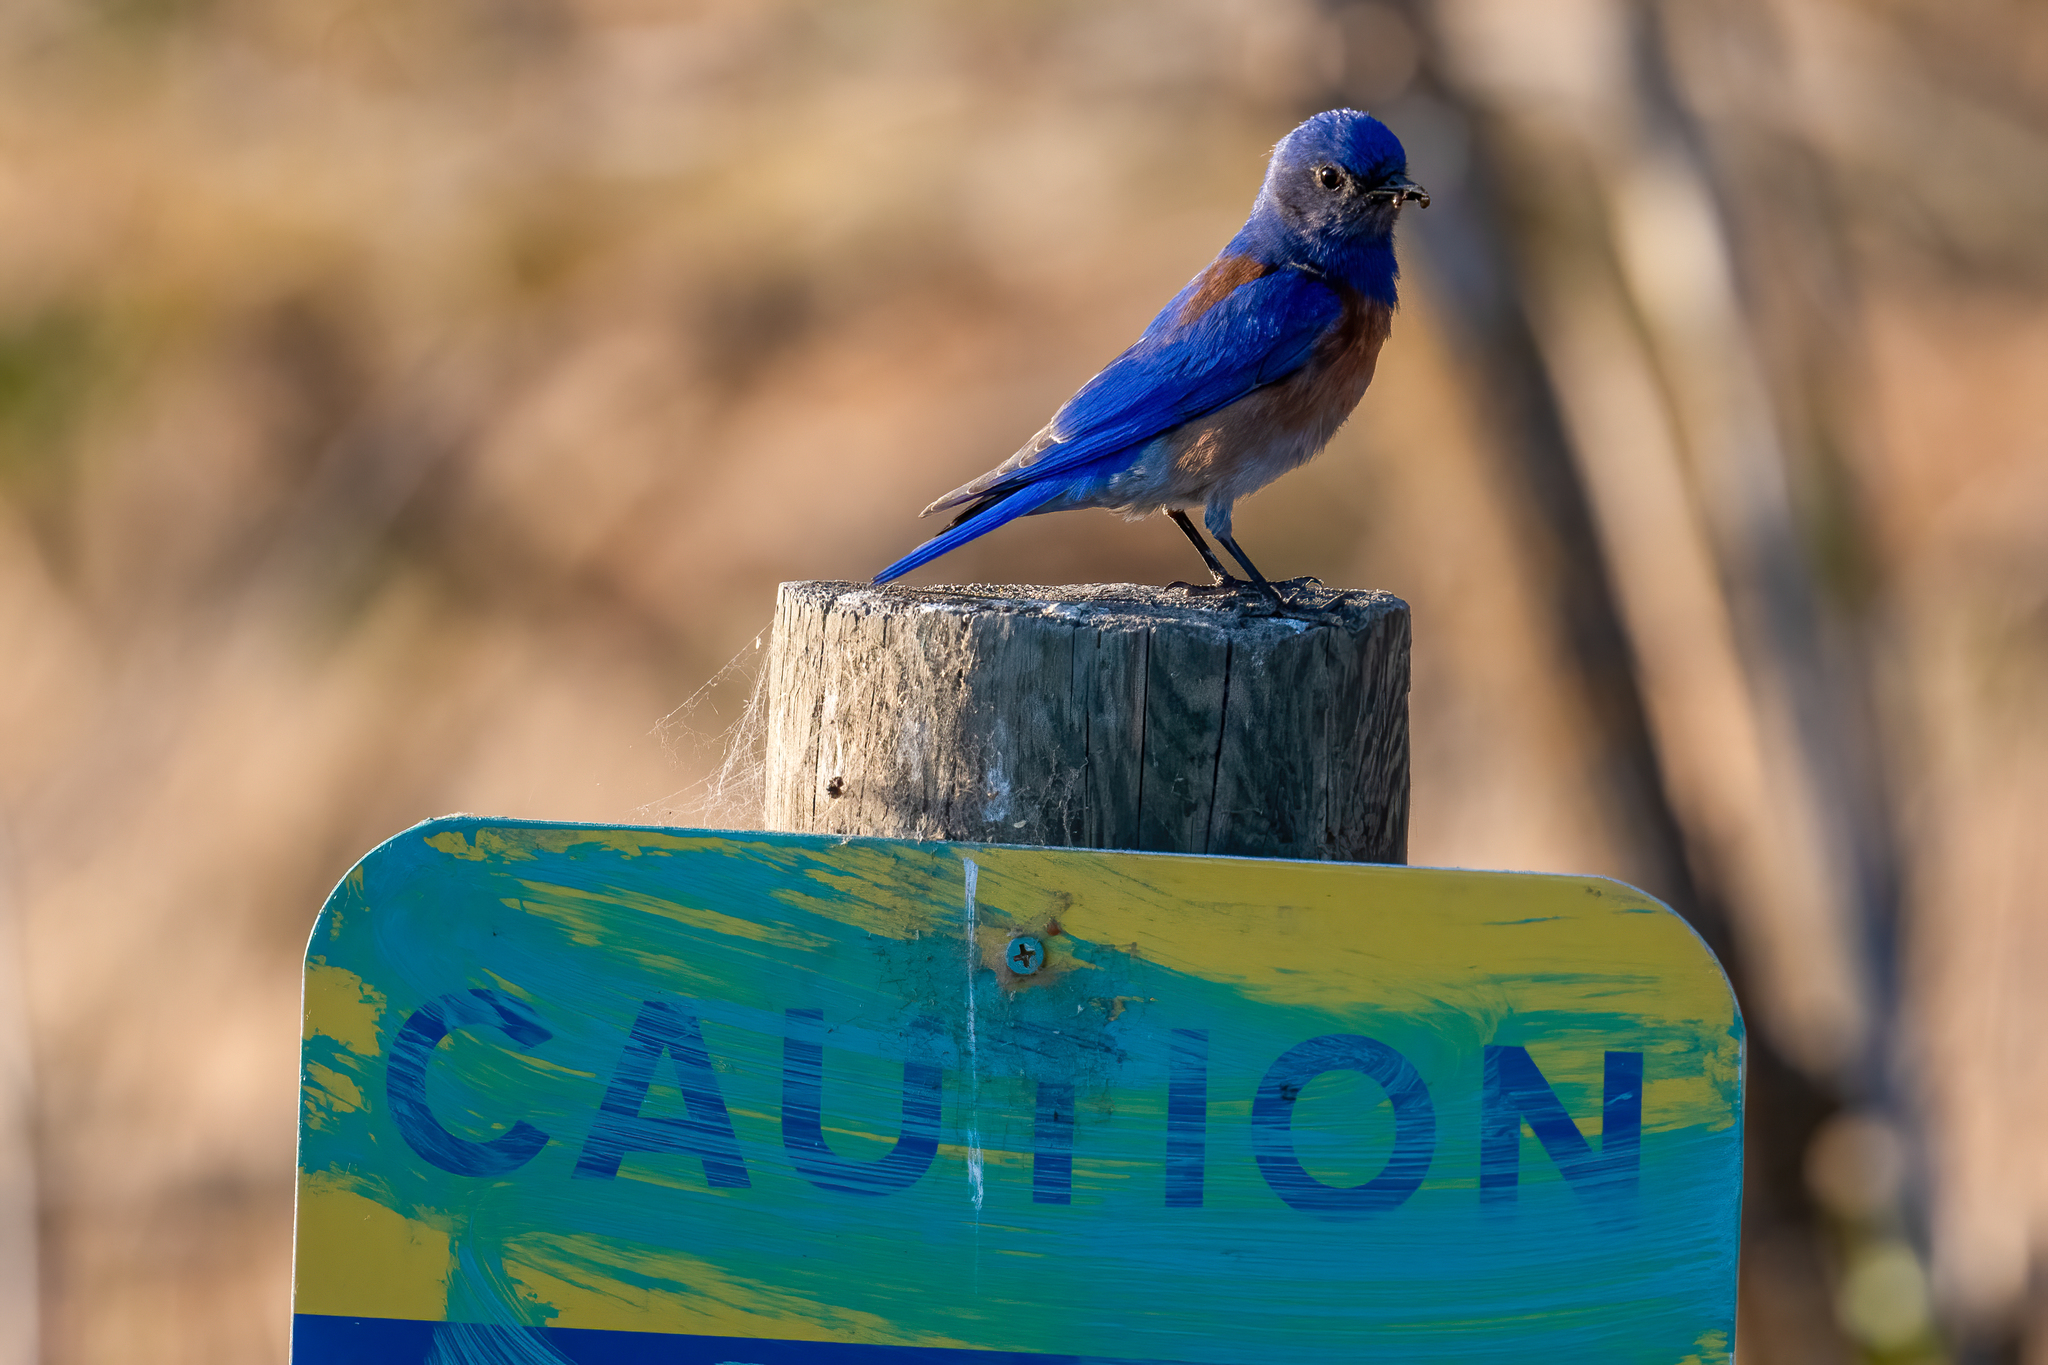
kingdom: Animalia
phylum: Chordata
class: Aves
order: Passeriformes
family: Turdidae
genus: Sialia
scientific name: Sialia mexicana
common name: Western bluebird
